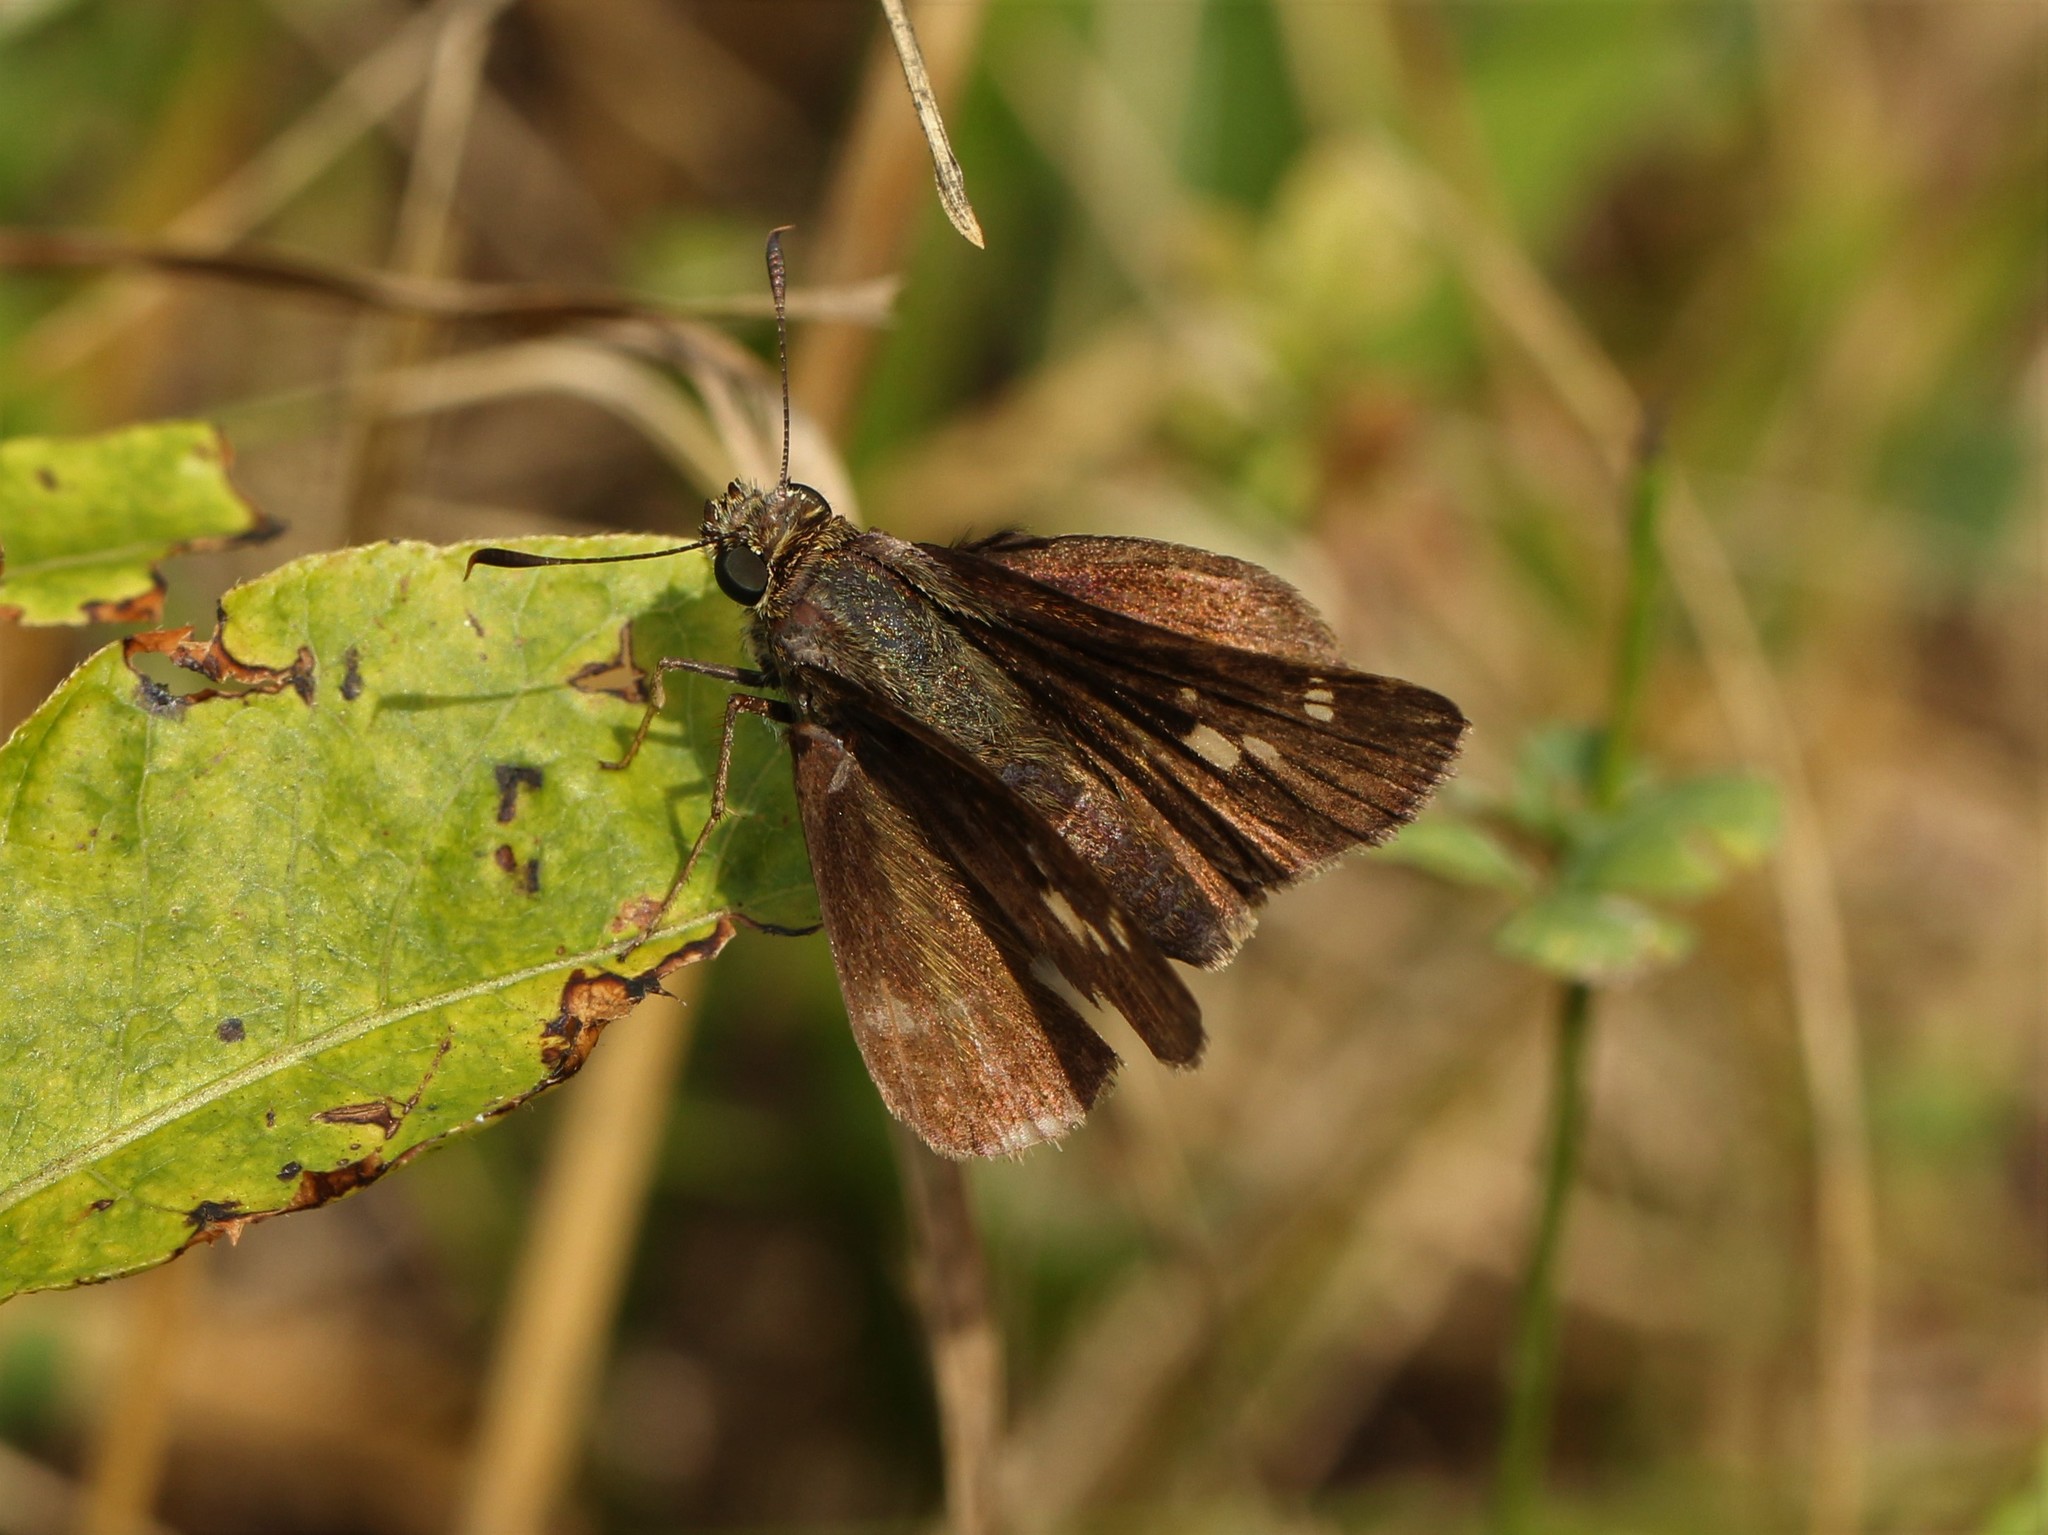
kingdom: Animalia
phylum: Arthropoda
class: Insecta
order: Lepidoptera
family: Hesperiidae
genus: Vernia
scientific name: Vernia verna
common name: Little glassywing
